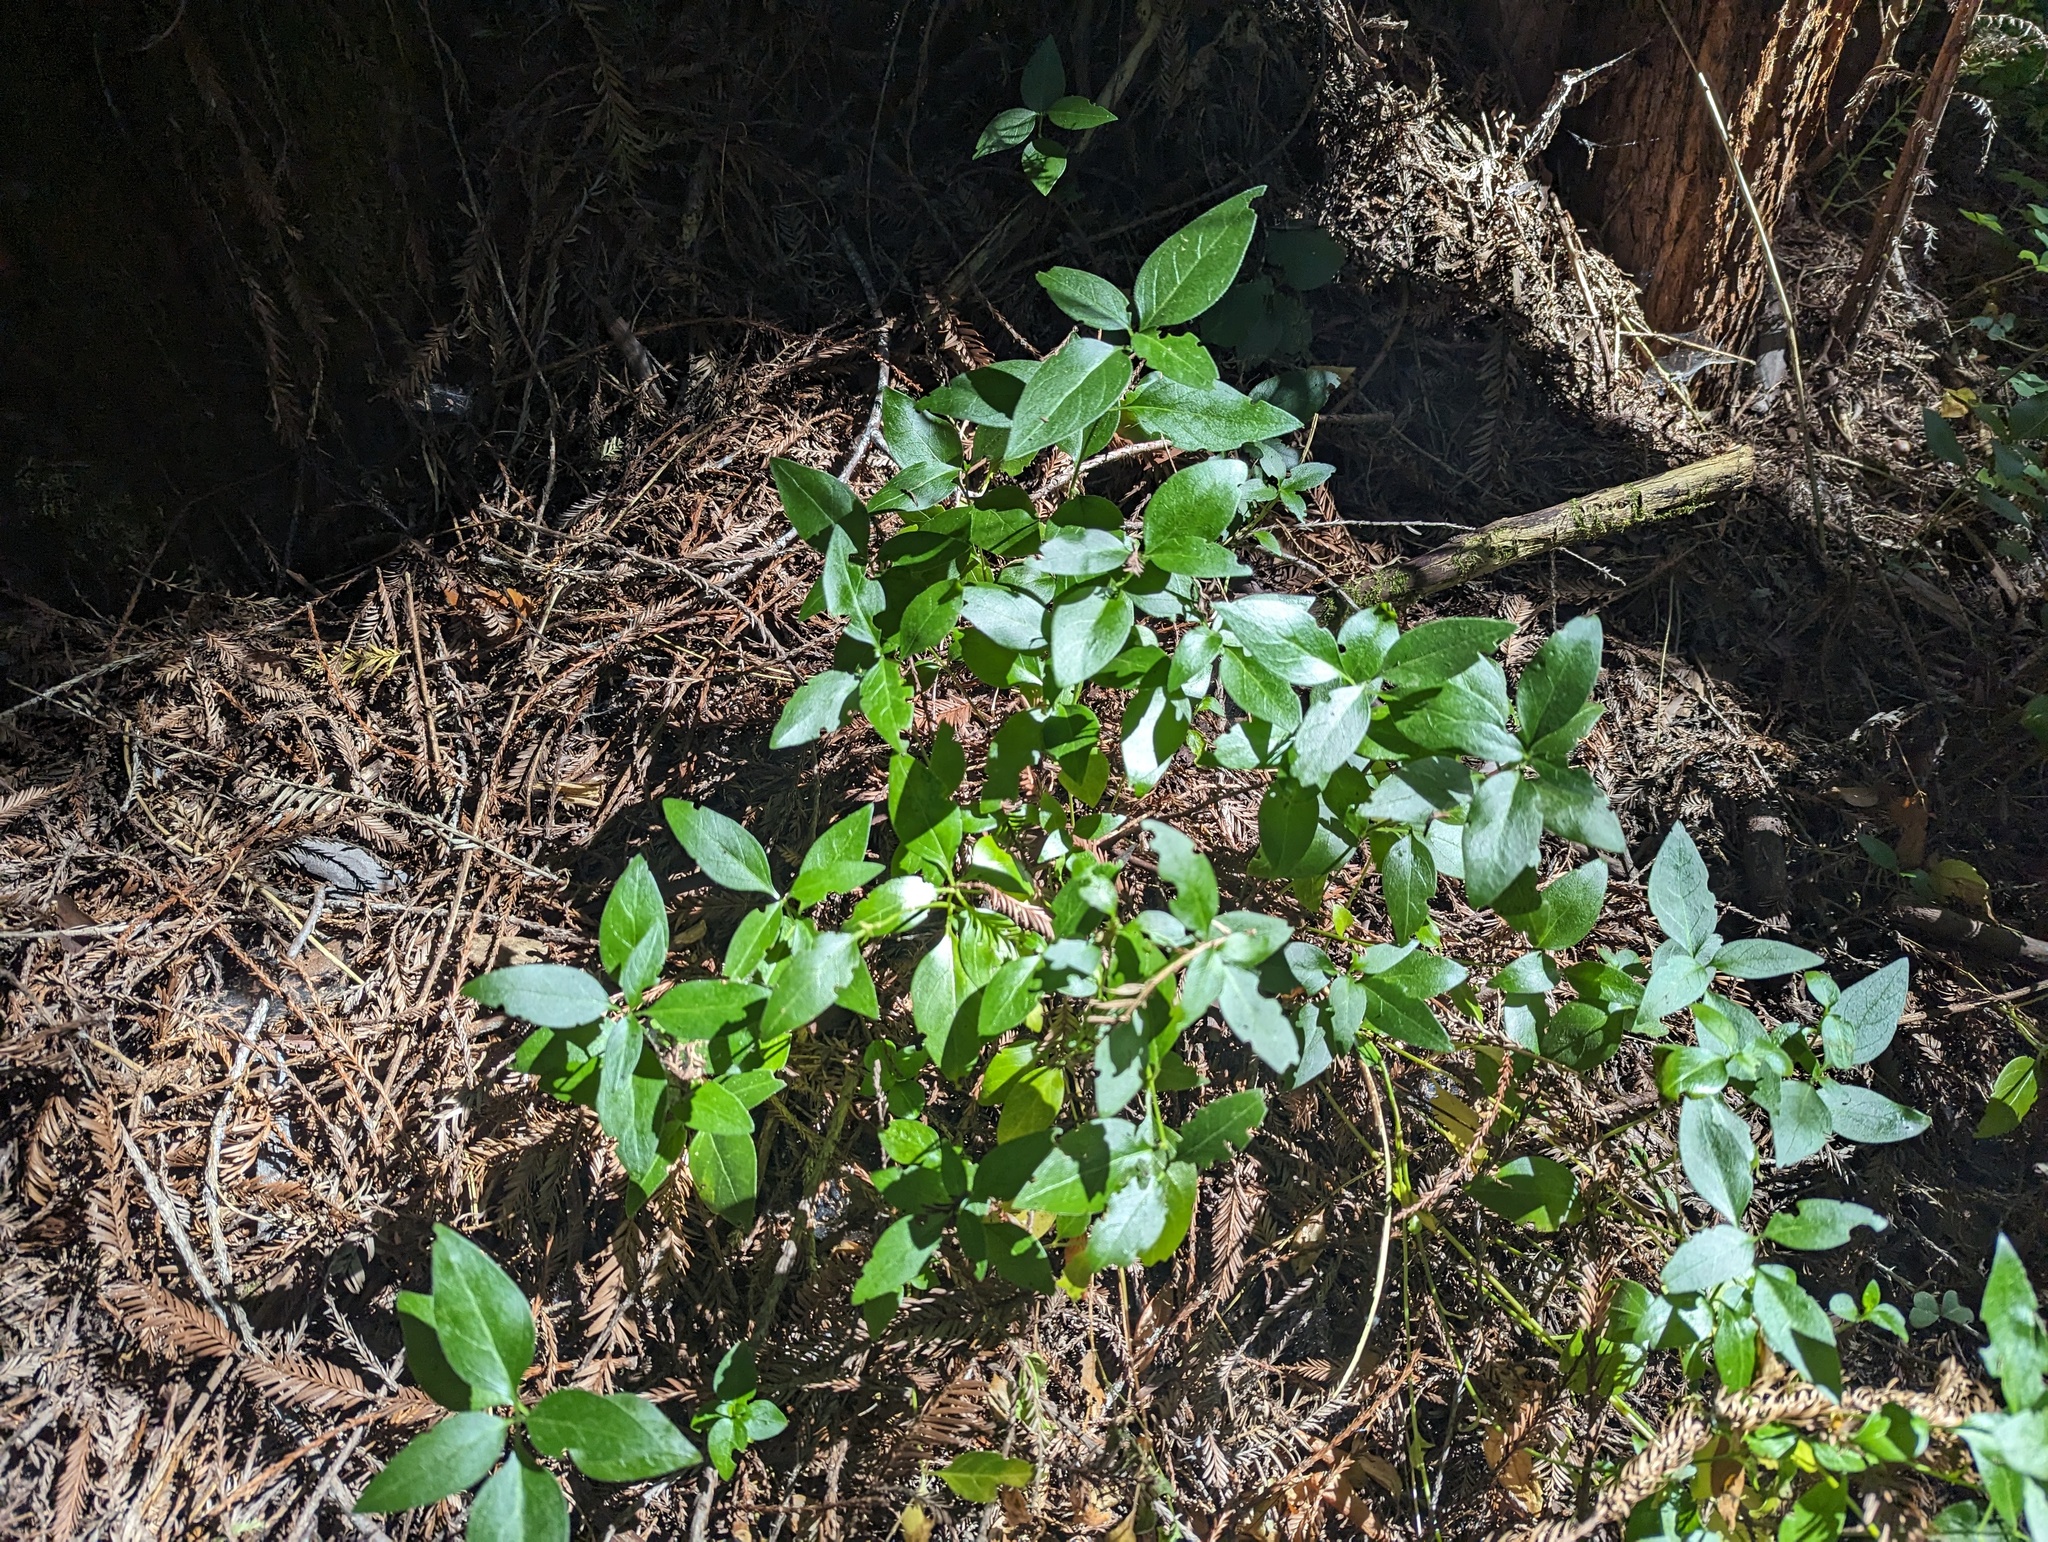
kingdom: Plantae
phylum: Tracheophyta
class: Magnoliopsida
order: Gentianales
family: Apocynaceae
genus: Vinca
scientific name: Vinca major
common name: Greater periwinkle
